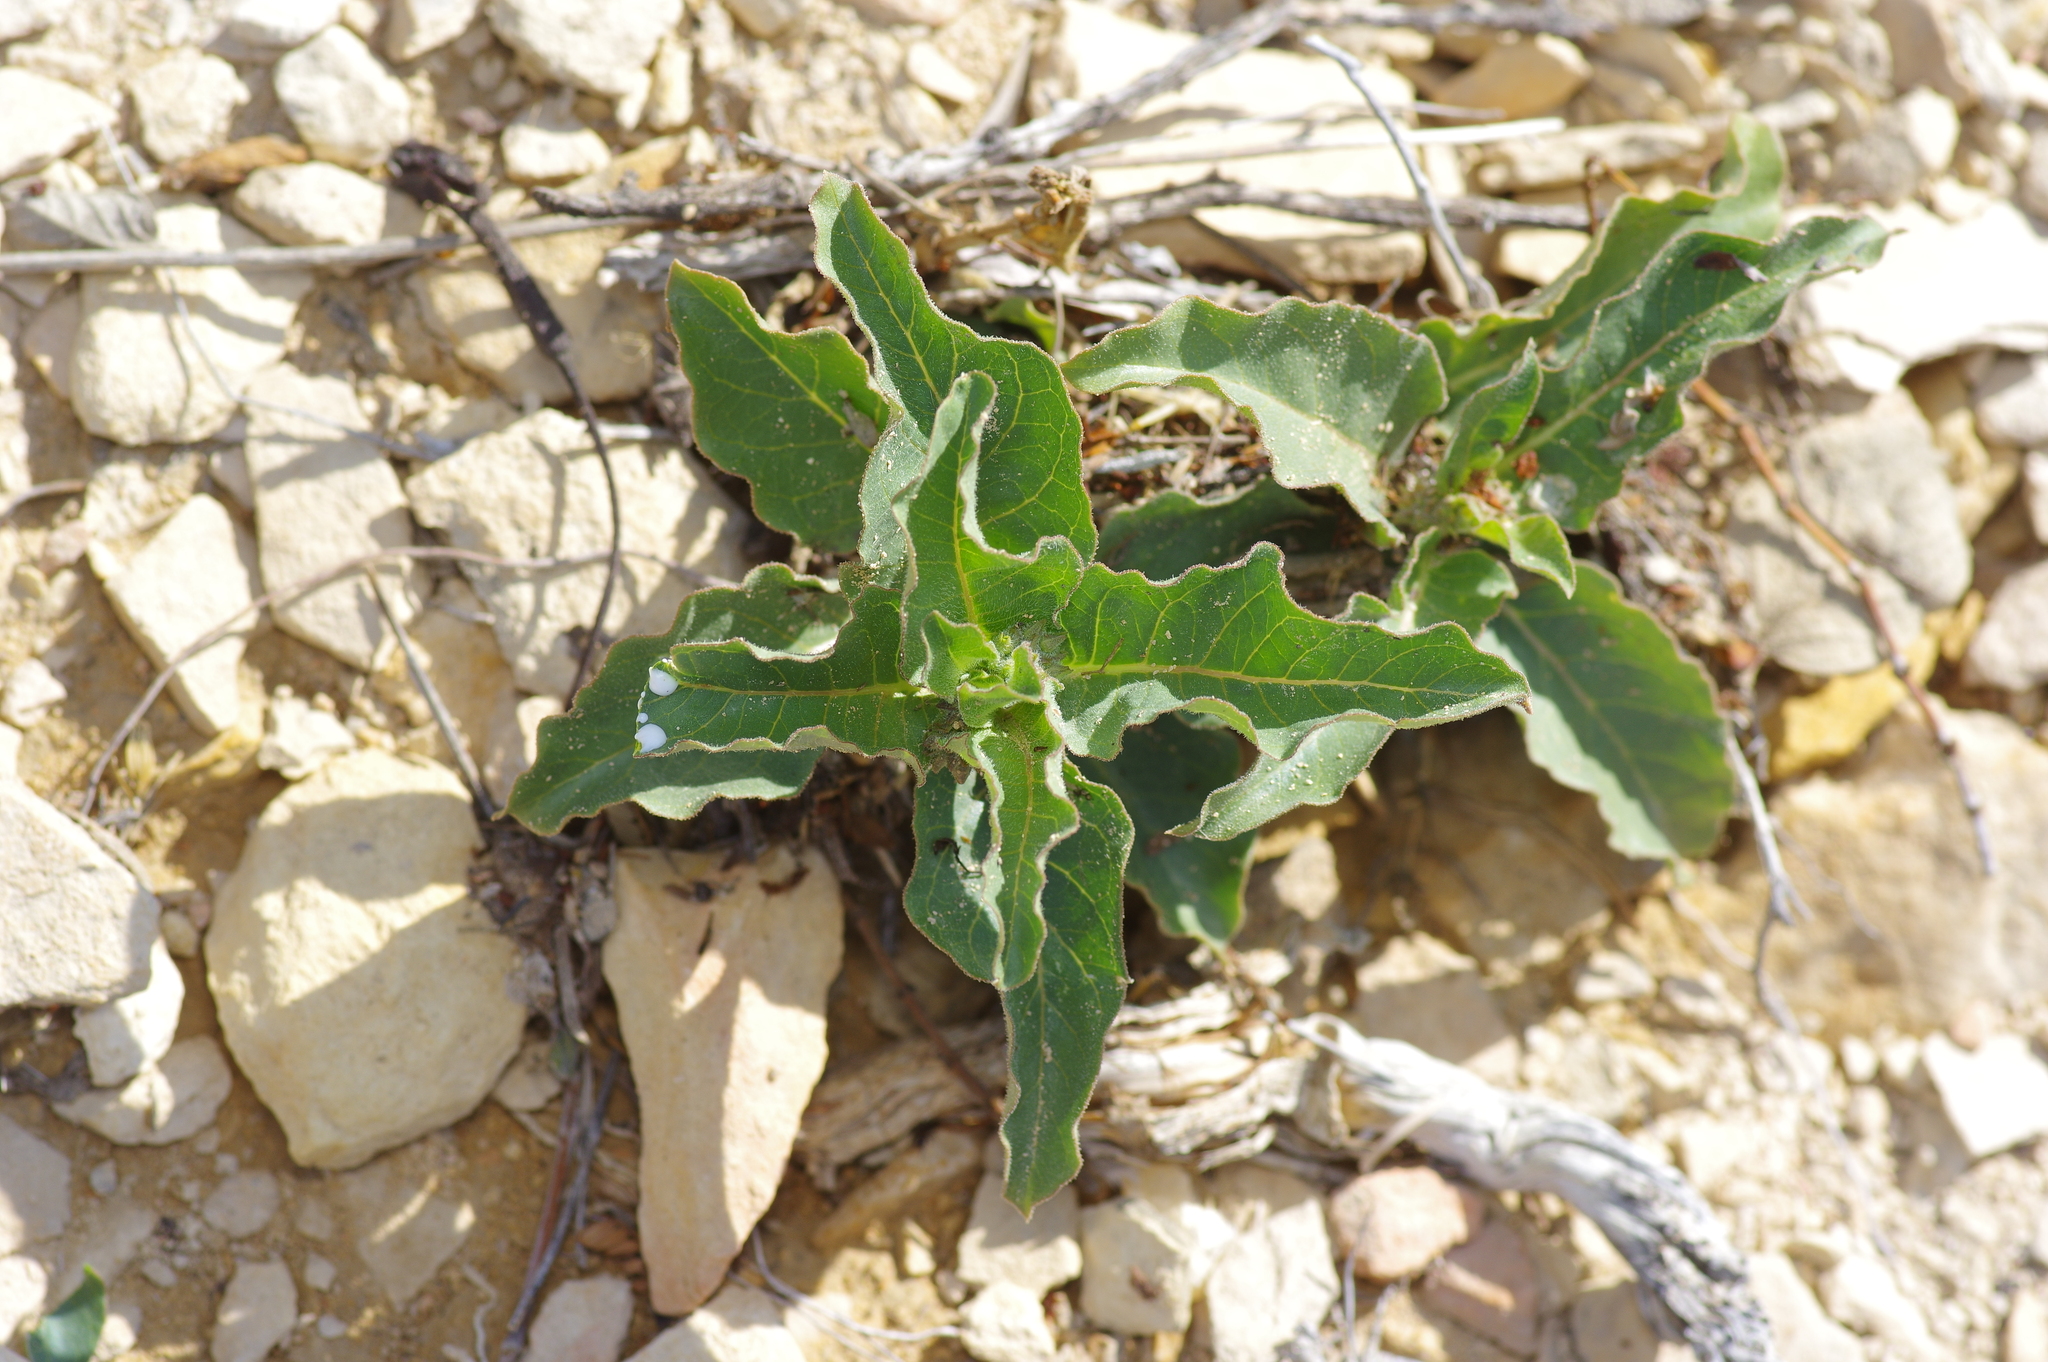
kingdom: Plantae
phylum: Tracheophyta
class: Magnoliopsida
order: Gentianales
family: Apocynaceae
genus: Asclepias
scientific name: Asclepias oenotheroides
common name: Zizotes milkweed
